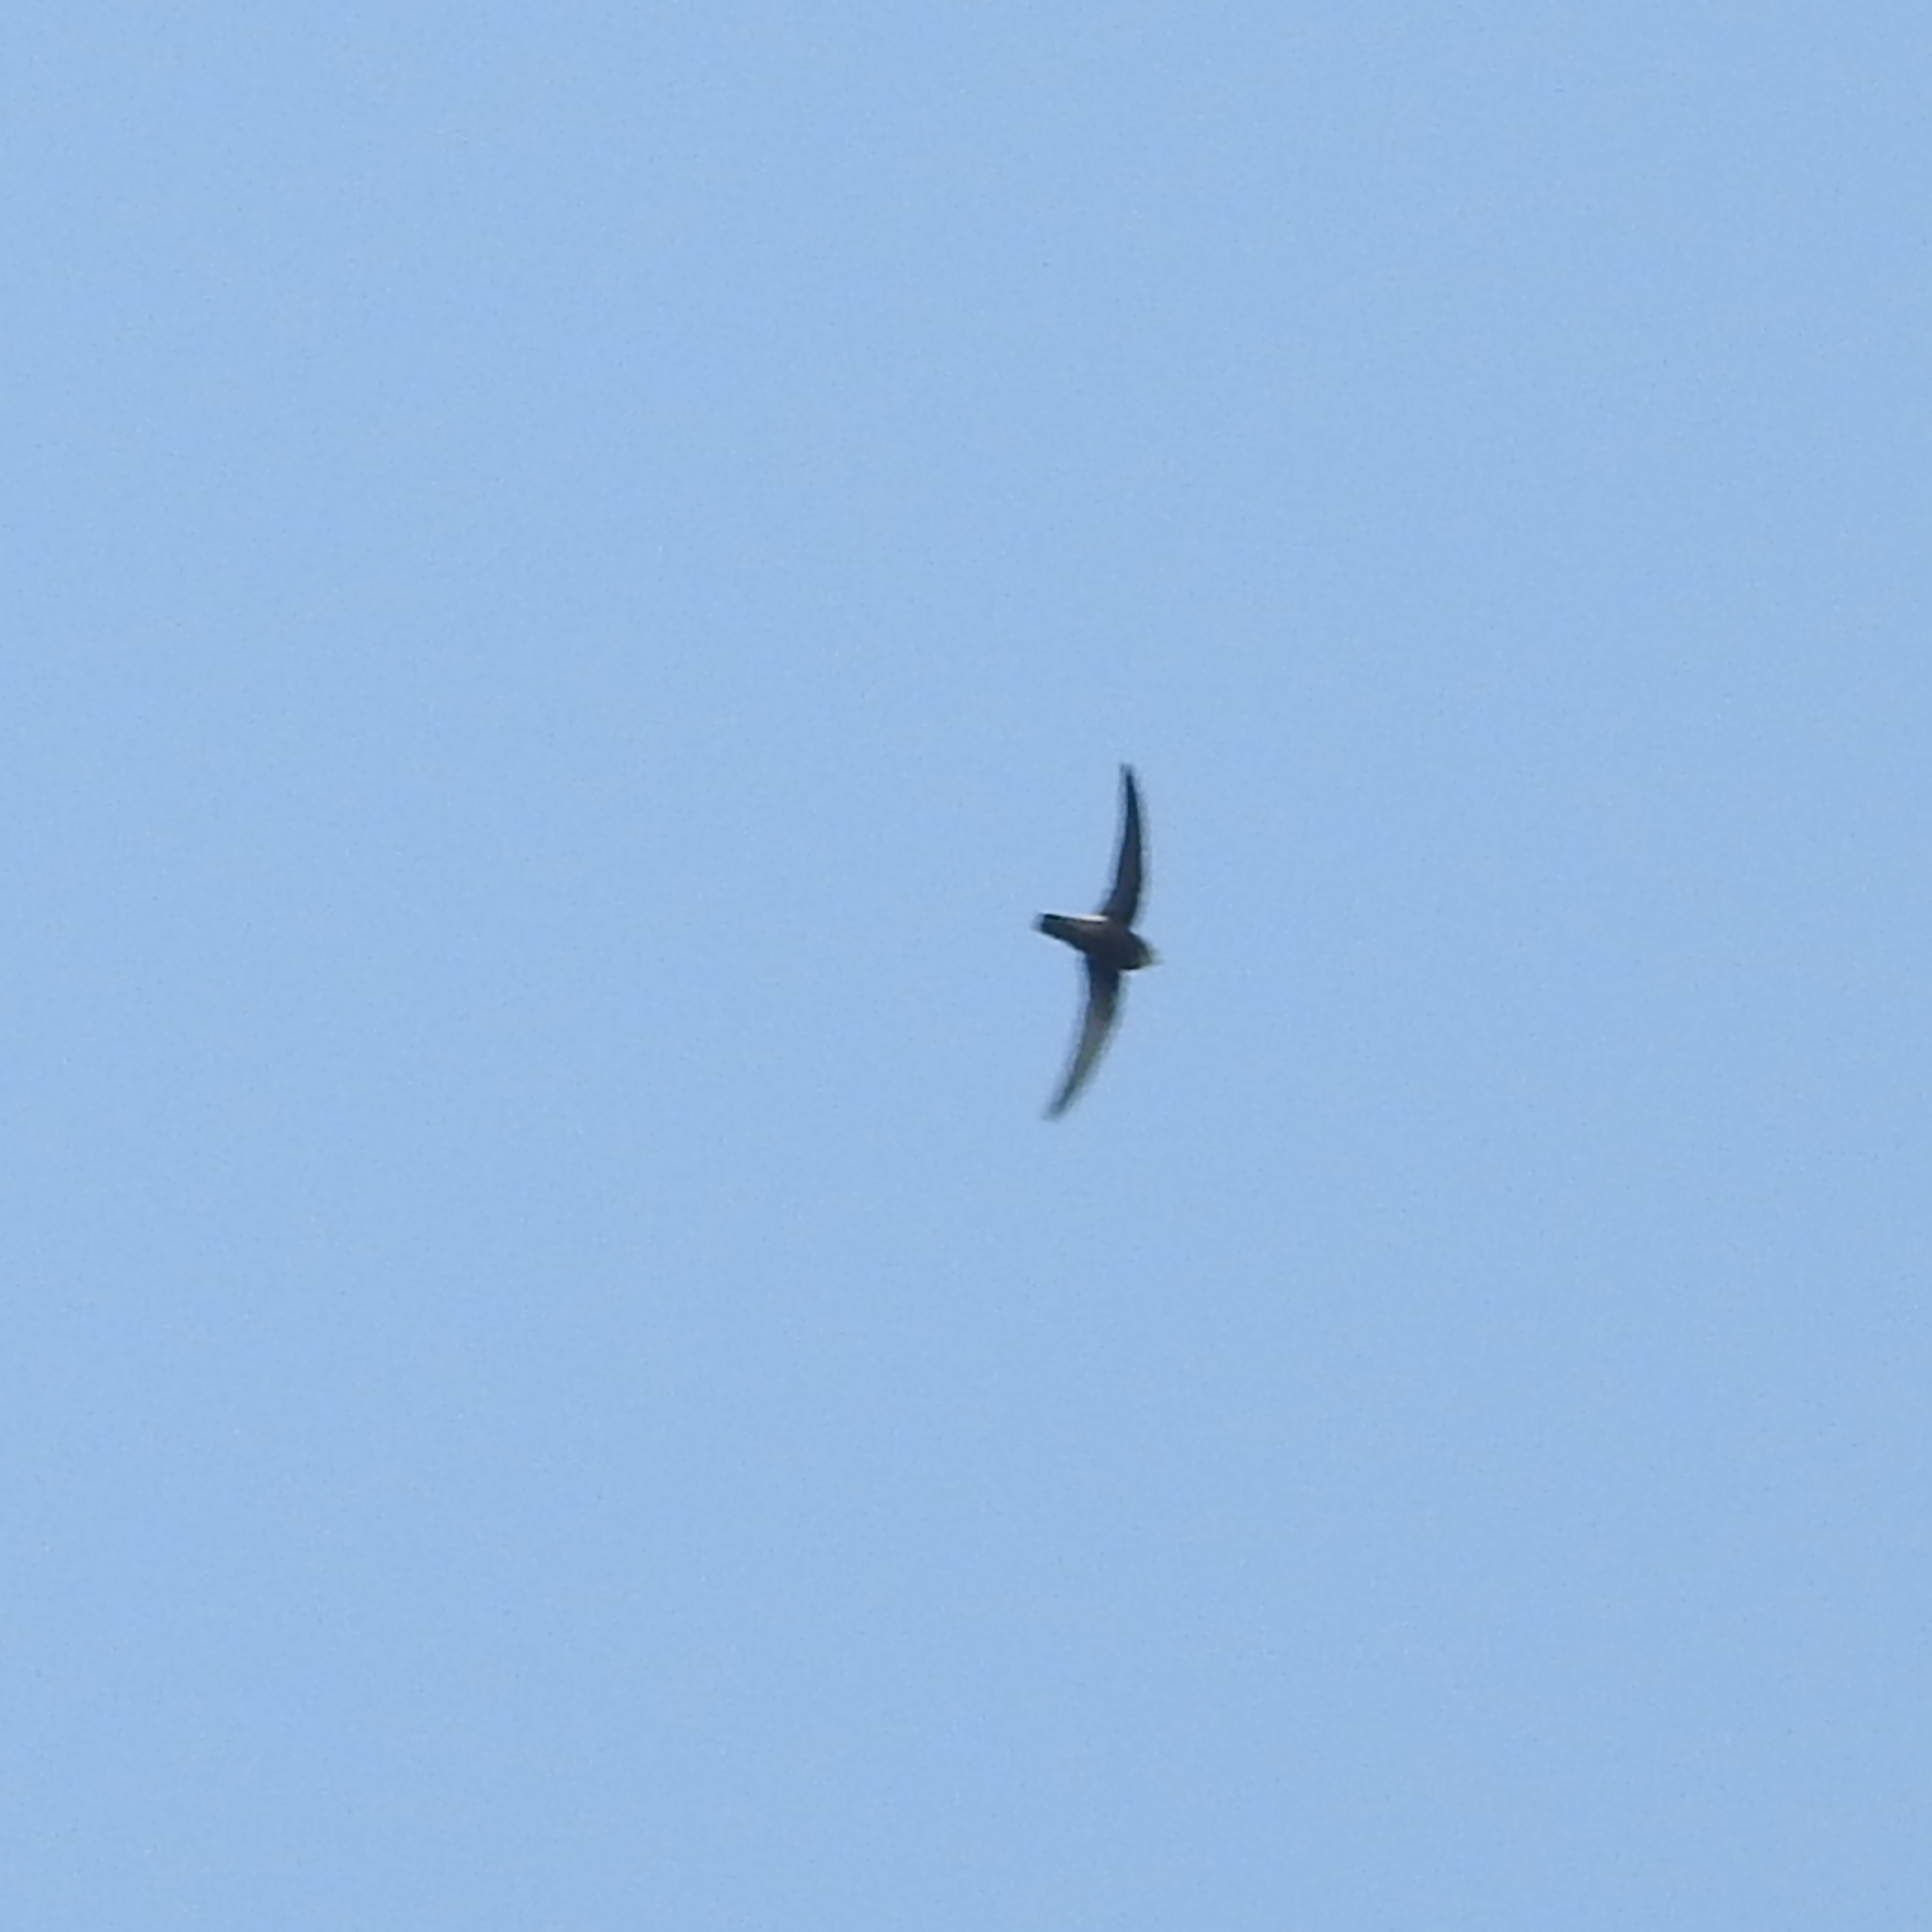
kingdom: Animalia
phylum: Chordata
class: Aves
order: Apodiformes
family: Apodidae
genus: Apus
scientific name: Apus affinis
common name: Little swift
